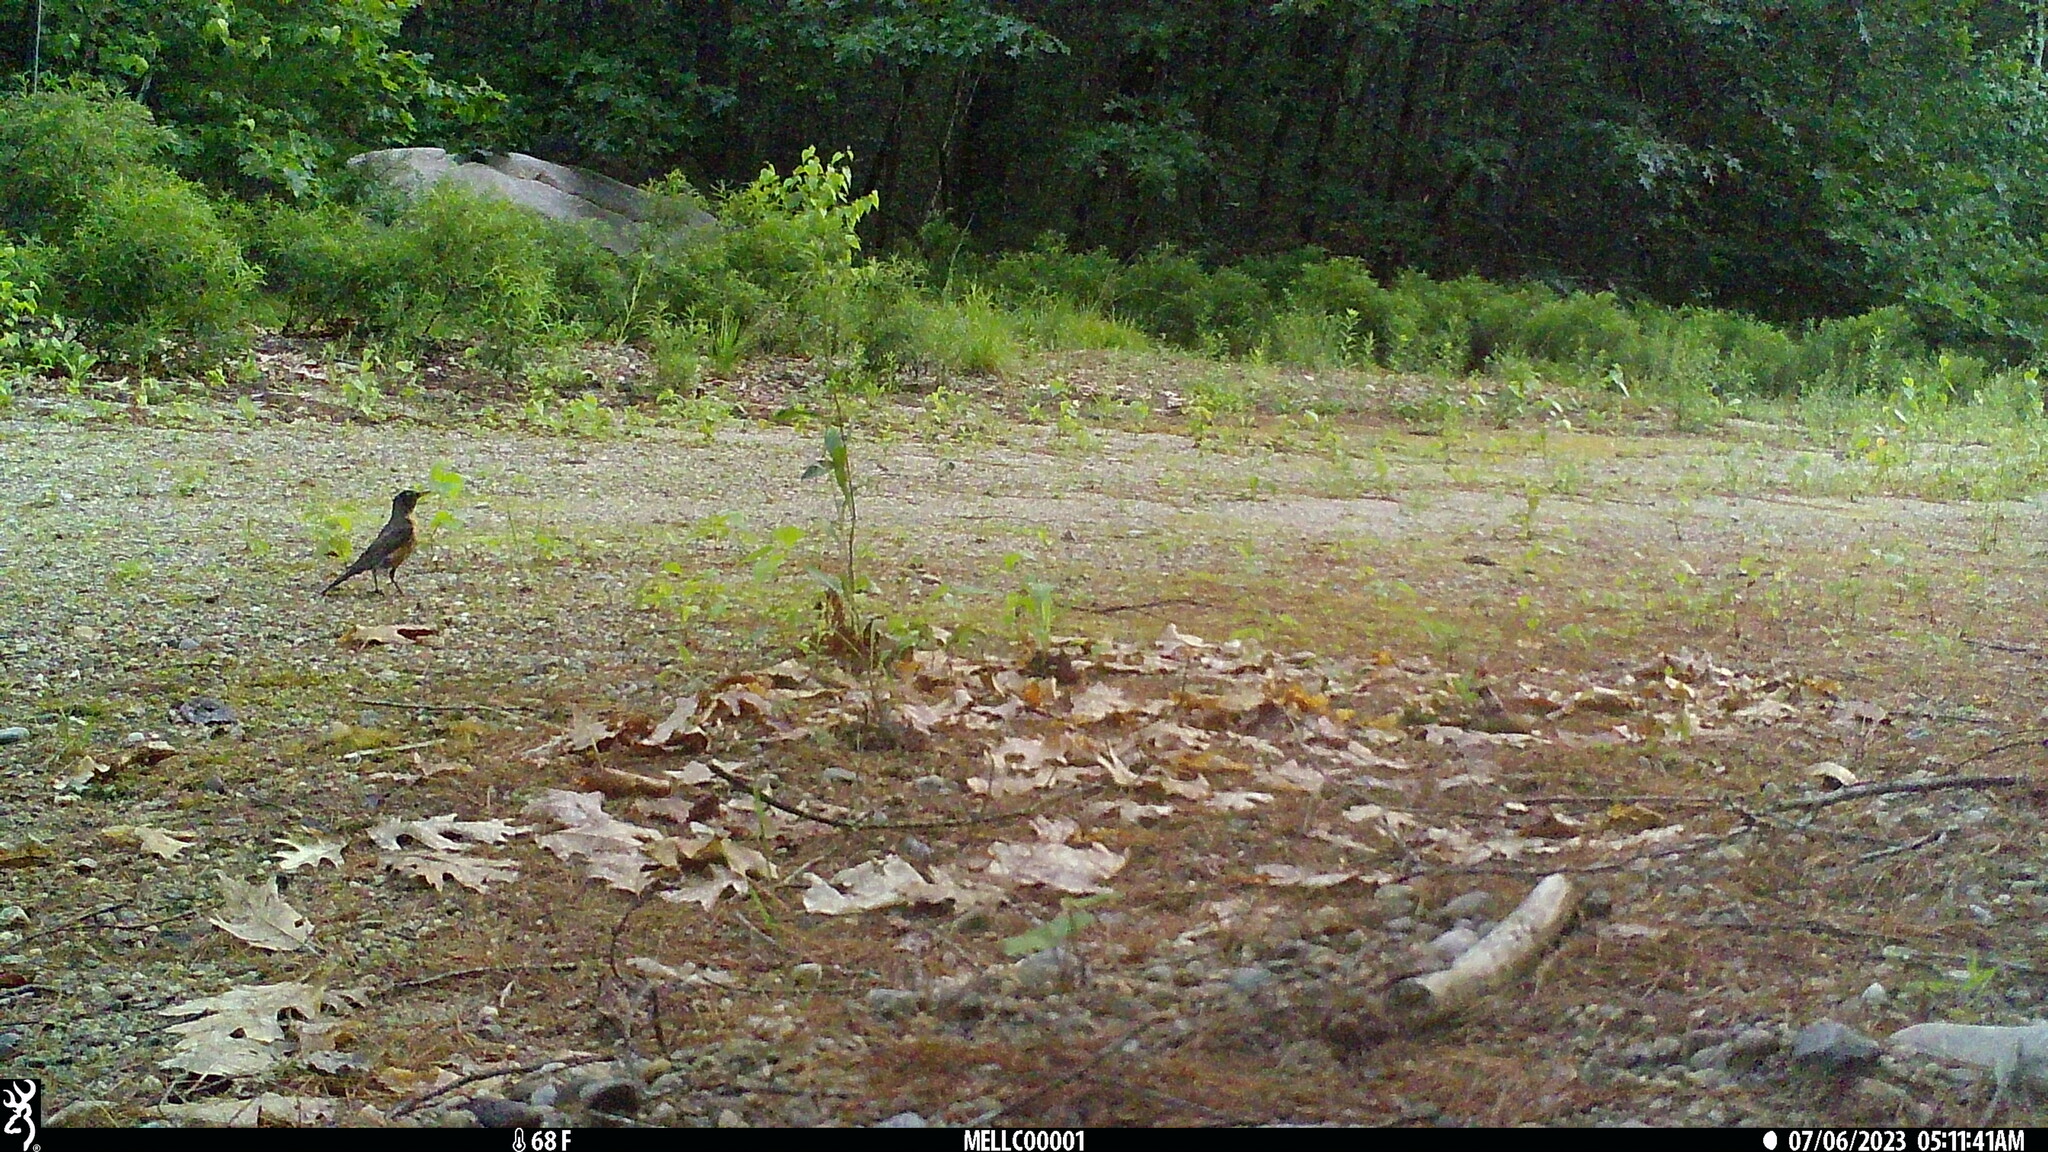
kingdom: Animalia
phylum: Chordata
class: Aves
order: Passeriformes
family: Turdidae
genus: Turdus
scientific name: Turdus migratorius
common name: American robin
